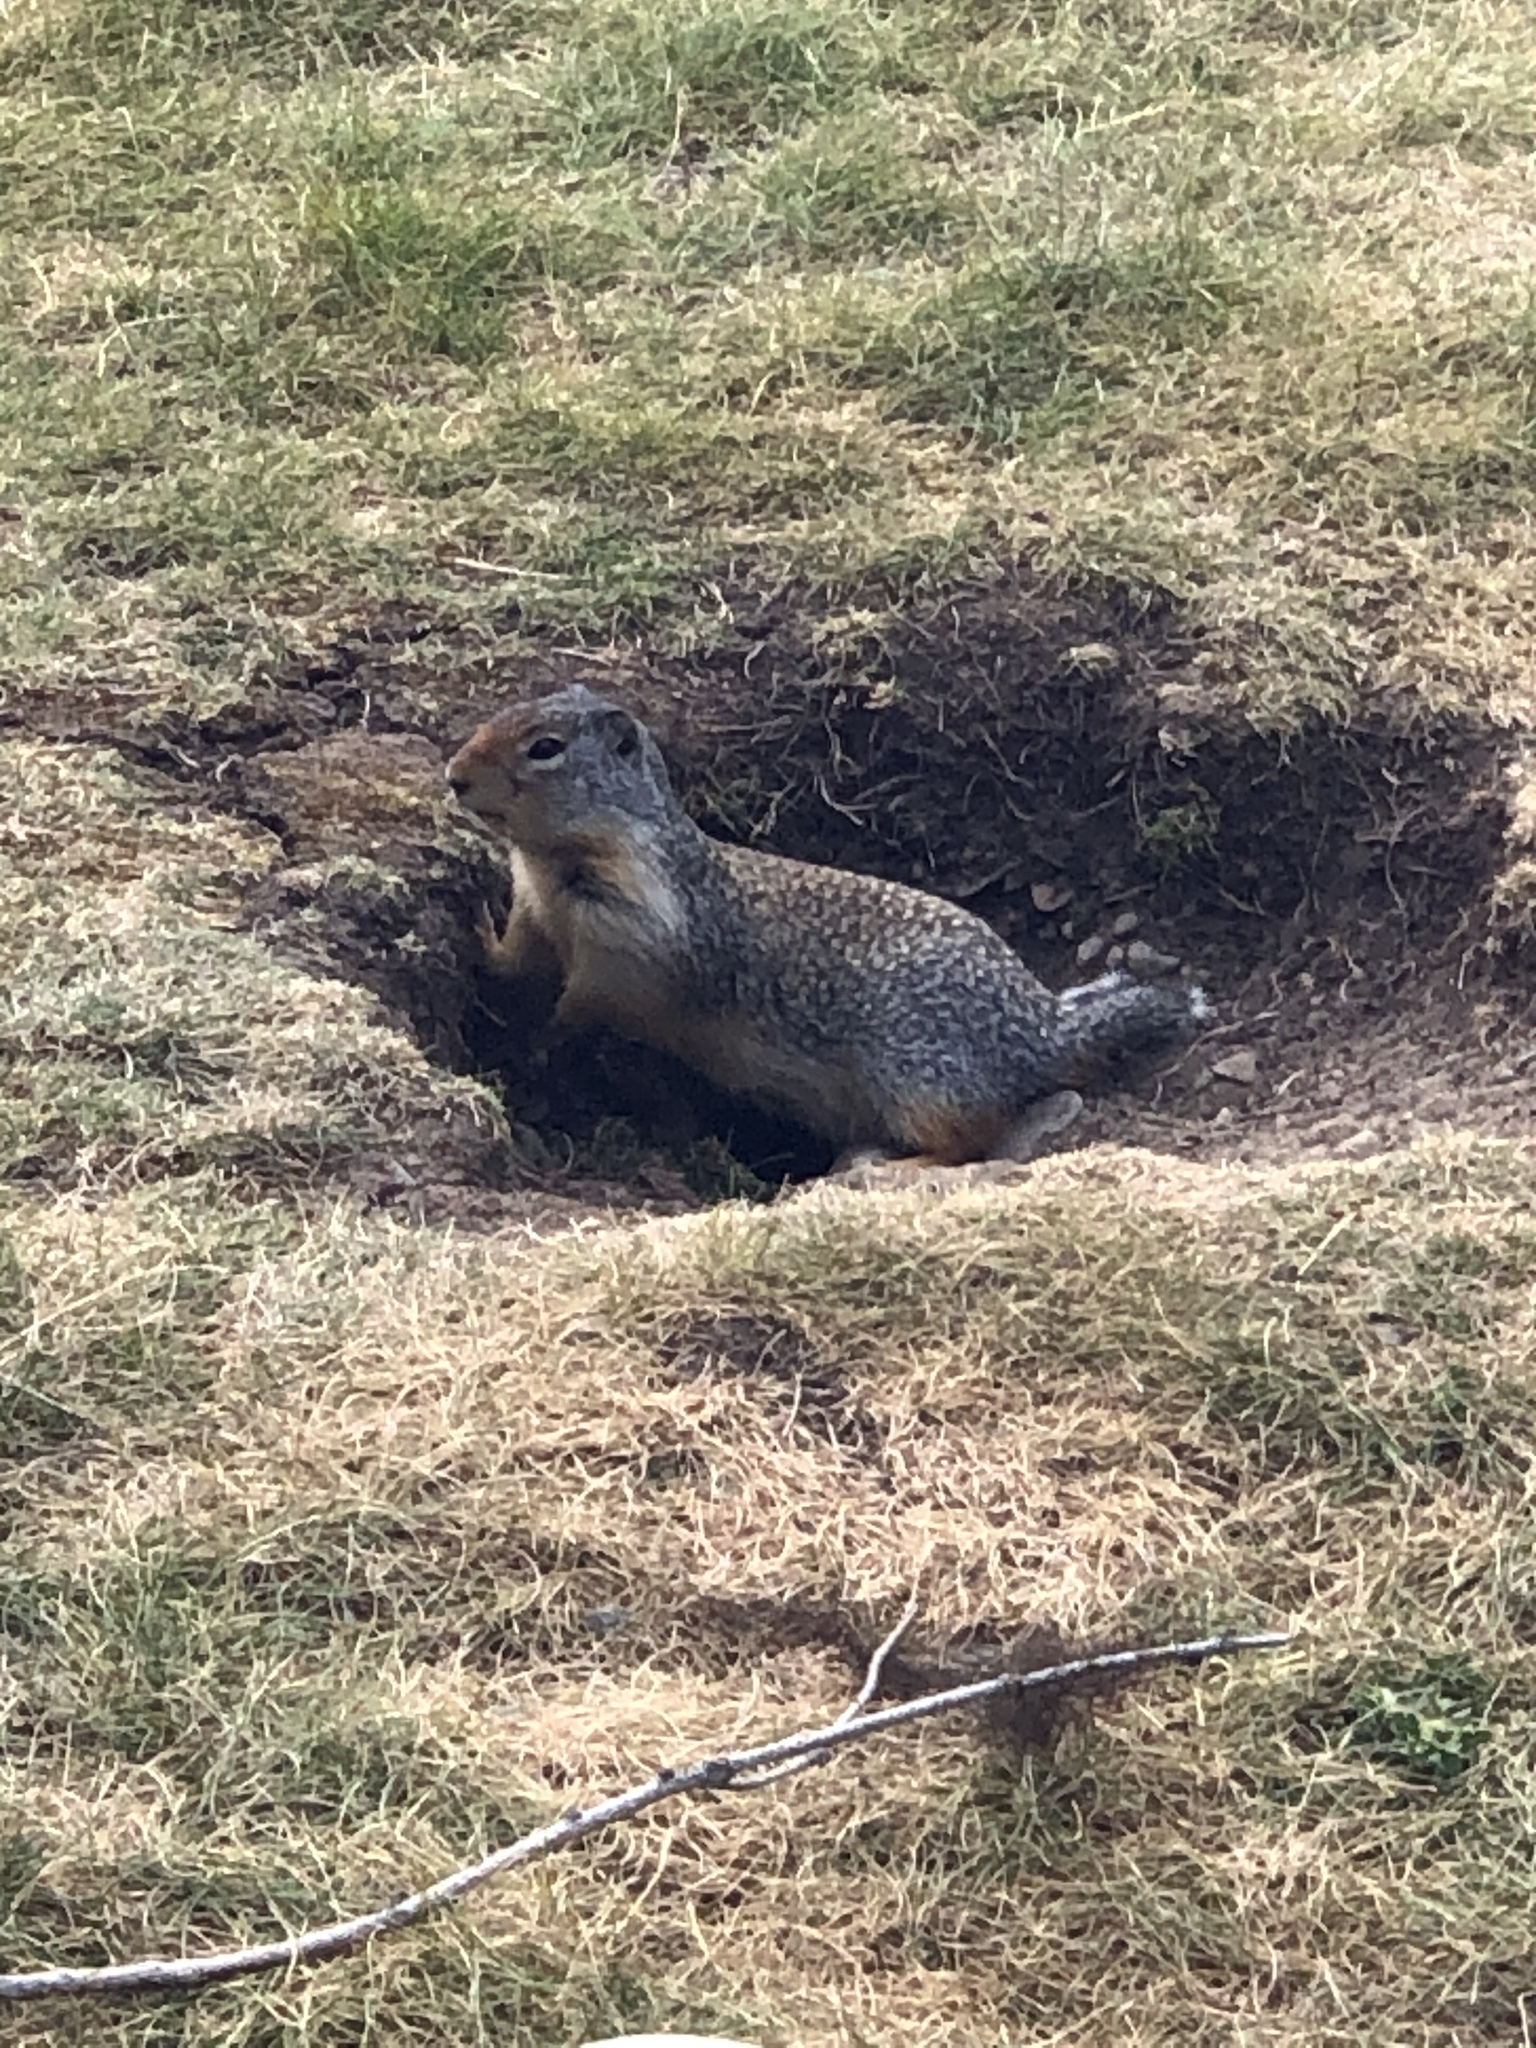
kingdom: Animalia
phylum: Chordata
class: Mammalia
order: Rodentia
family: Sciuridae
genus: Urocitellus
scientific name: Urocitellus columbianus
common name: Columbian ground squirrel
